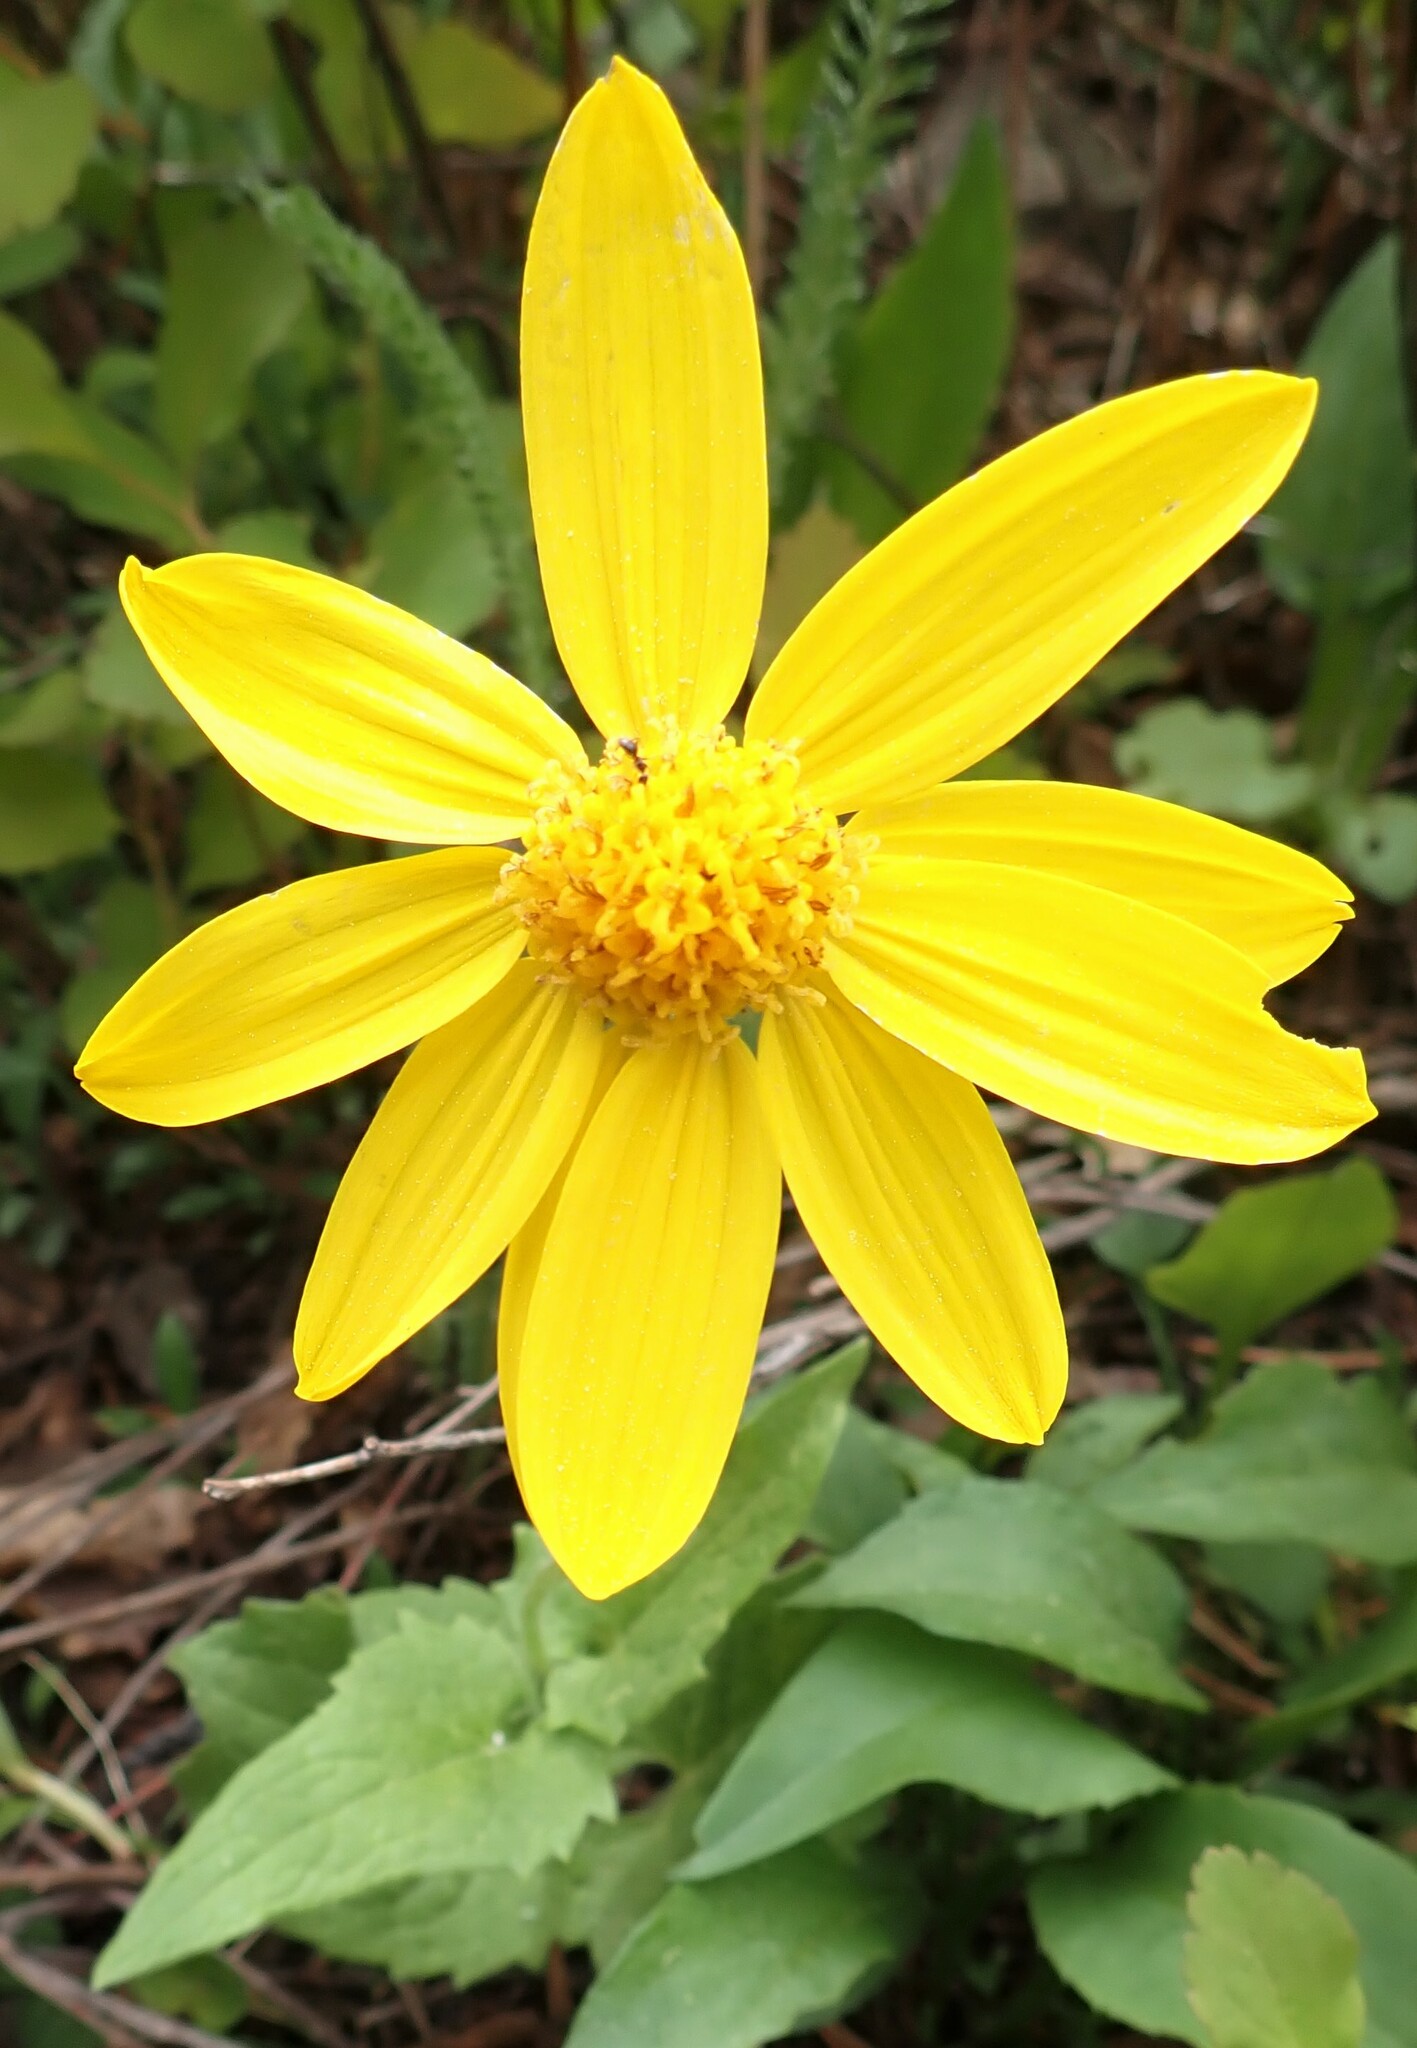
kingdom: Plantae
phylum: Tracheophyta
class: Magnoliopsida
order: Asterales
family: Asteraceae
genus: Arnica
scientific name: Arnica cordifolia
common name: Heart-leaf arnica
